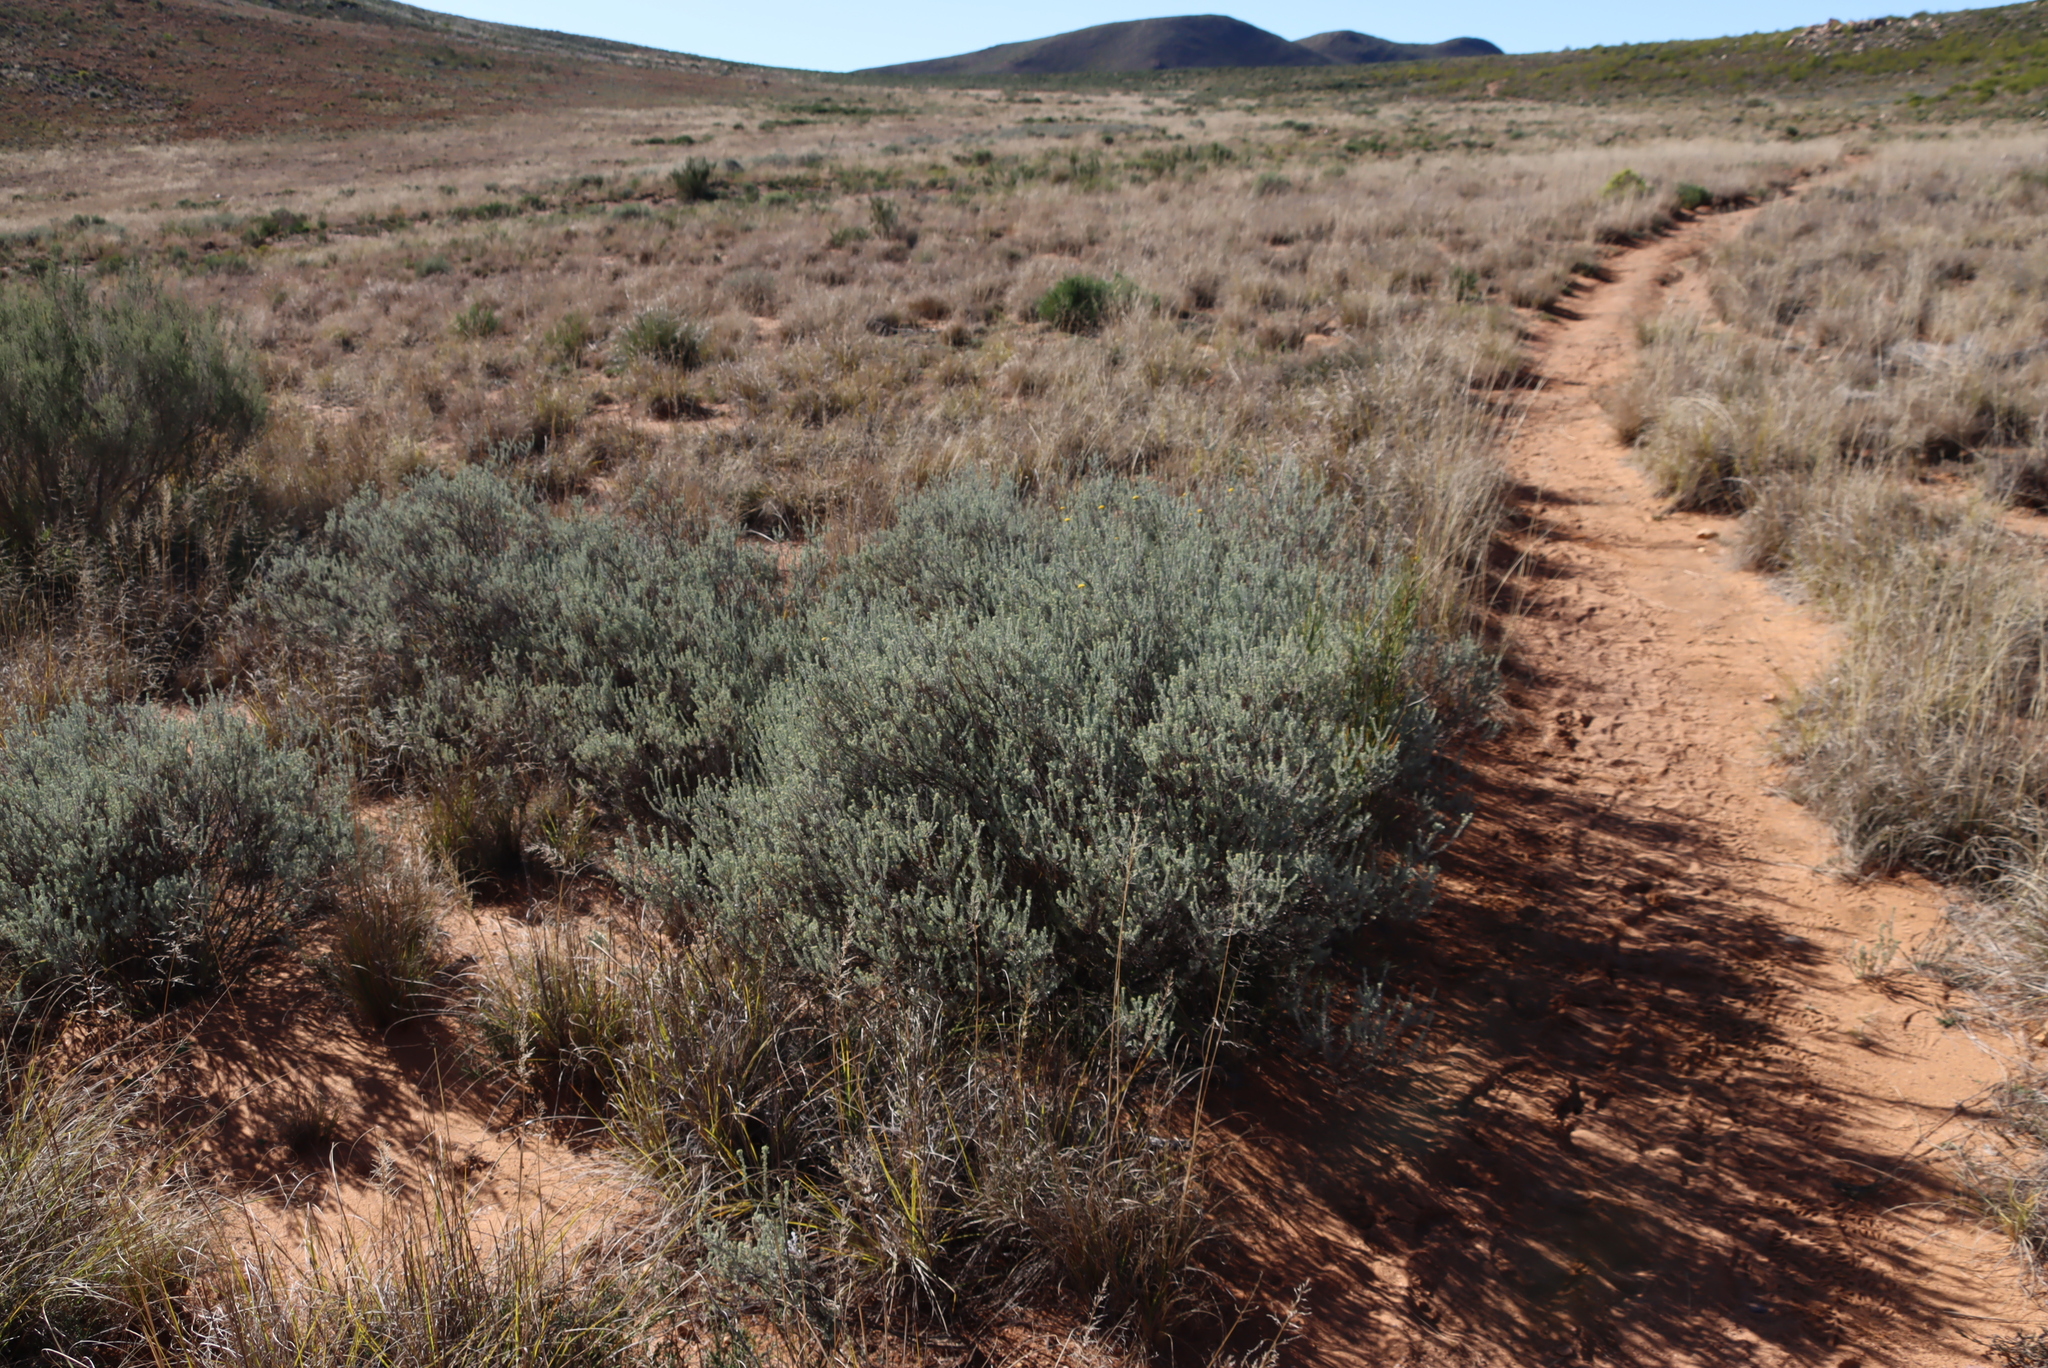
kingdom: Plantae
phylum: Tracheophyta
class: Magnoliopsida
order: Asterales
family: Asteraceae
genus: Athanasia
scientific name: Athanasia trifurcata
